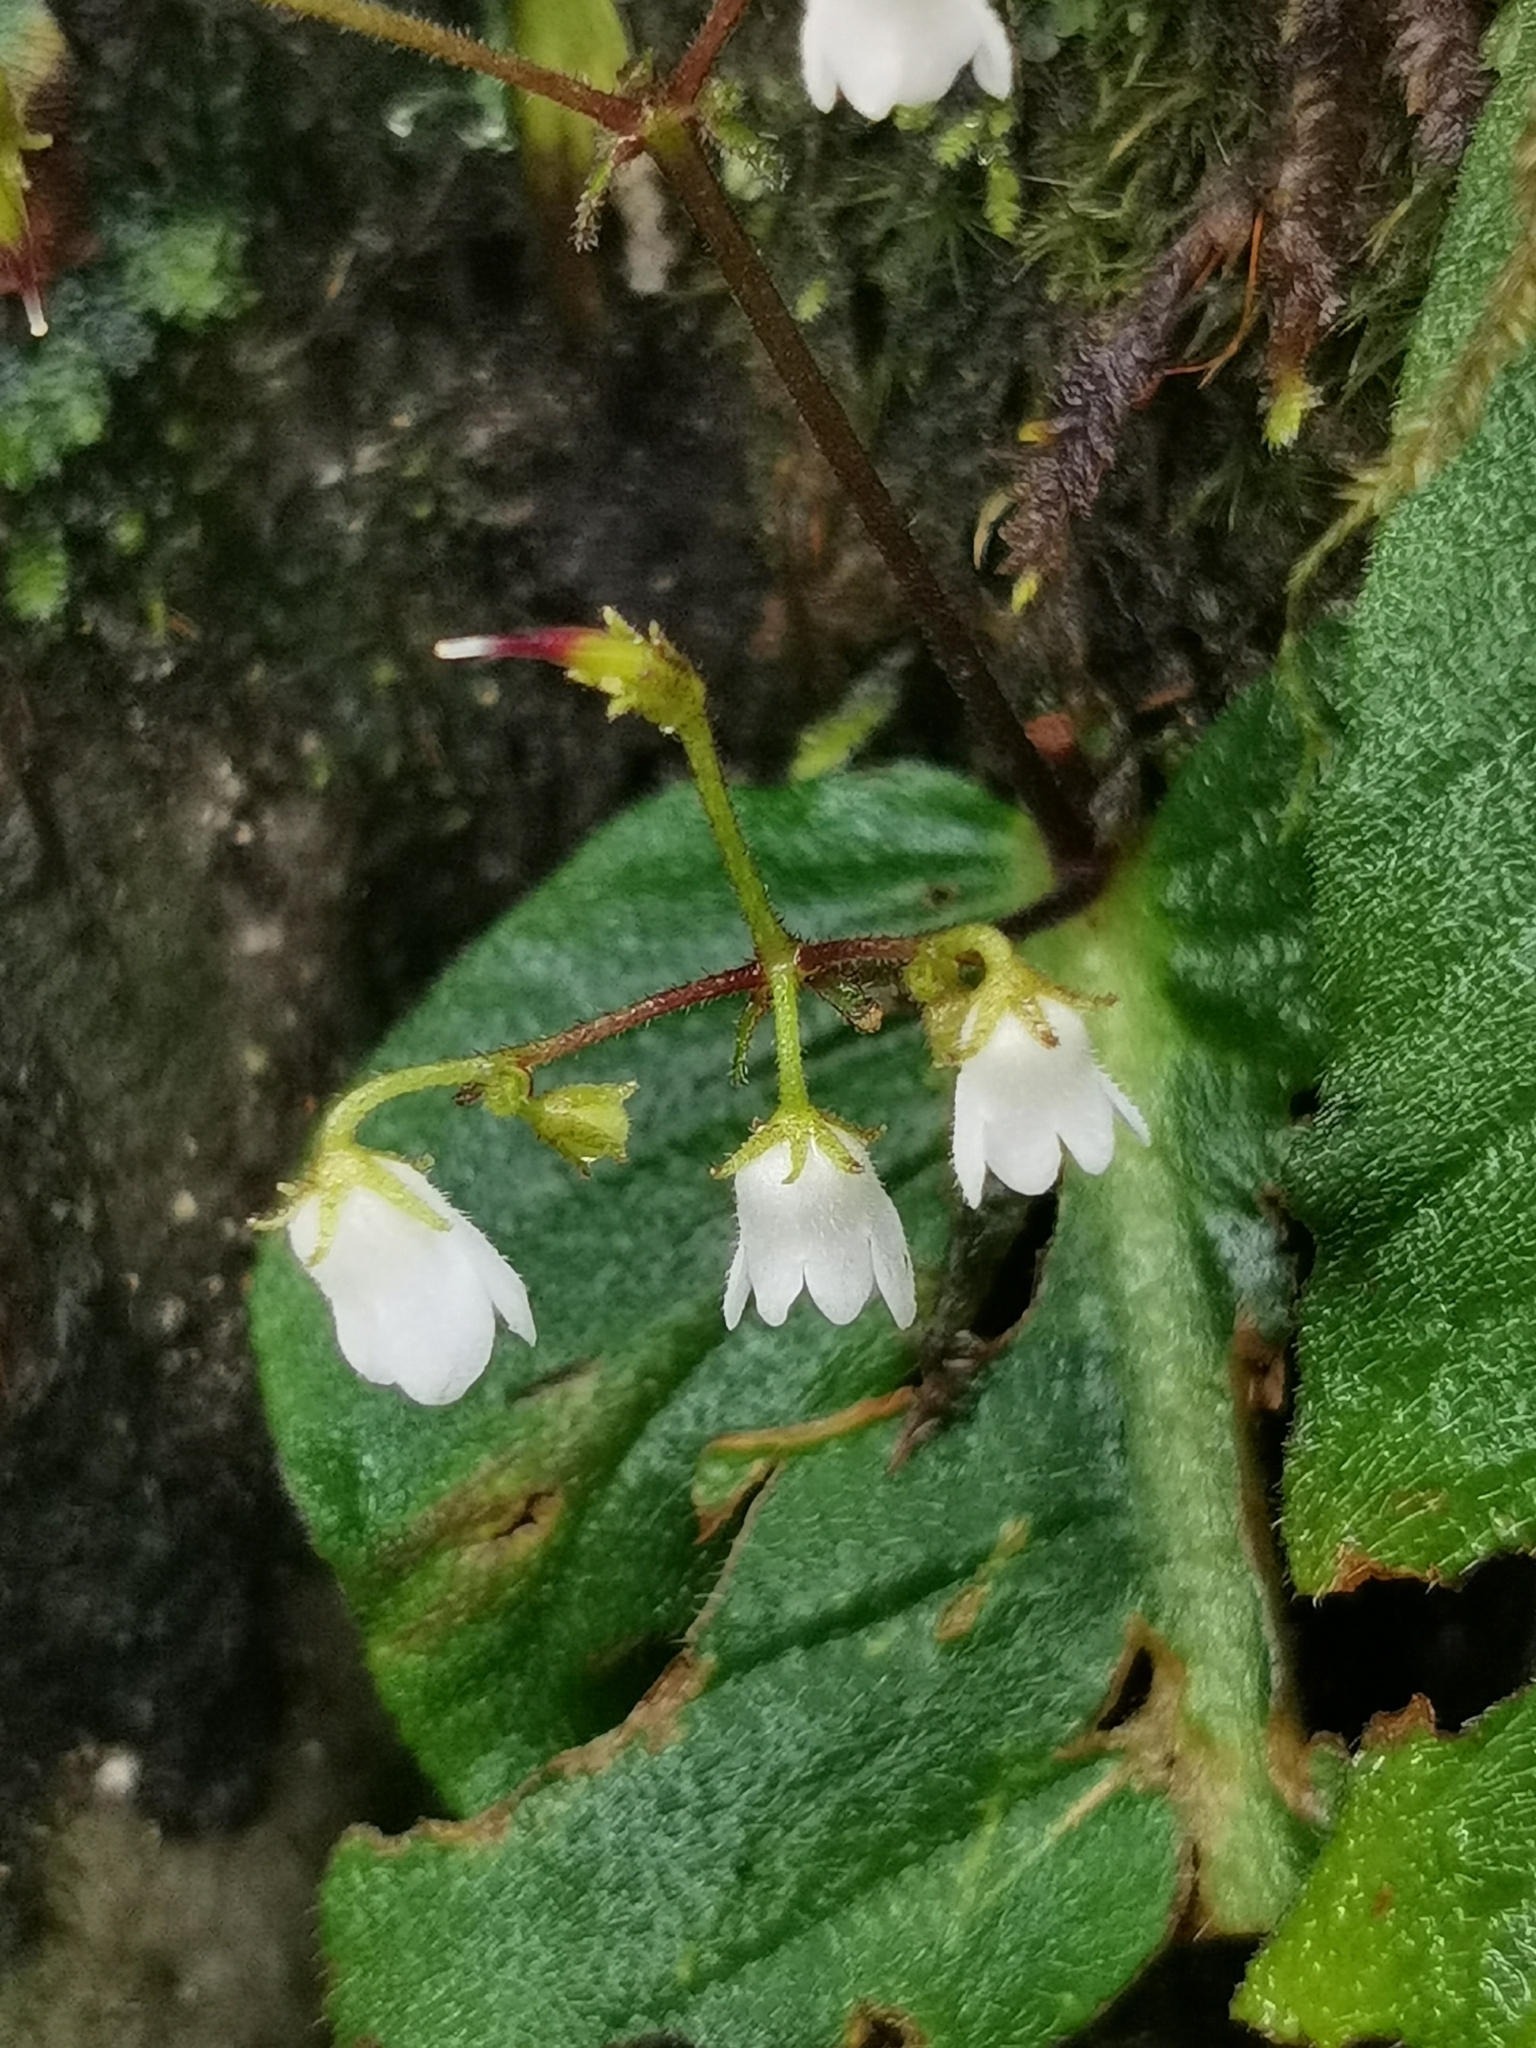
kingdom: Plantae
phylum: Tracheophyta
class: Magnoliopsida
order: Lamiales
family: Gesneriaceae
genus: Streptocarpus
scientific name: Streptocarpus micranthus
